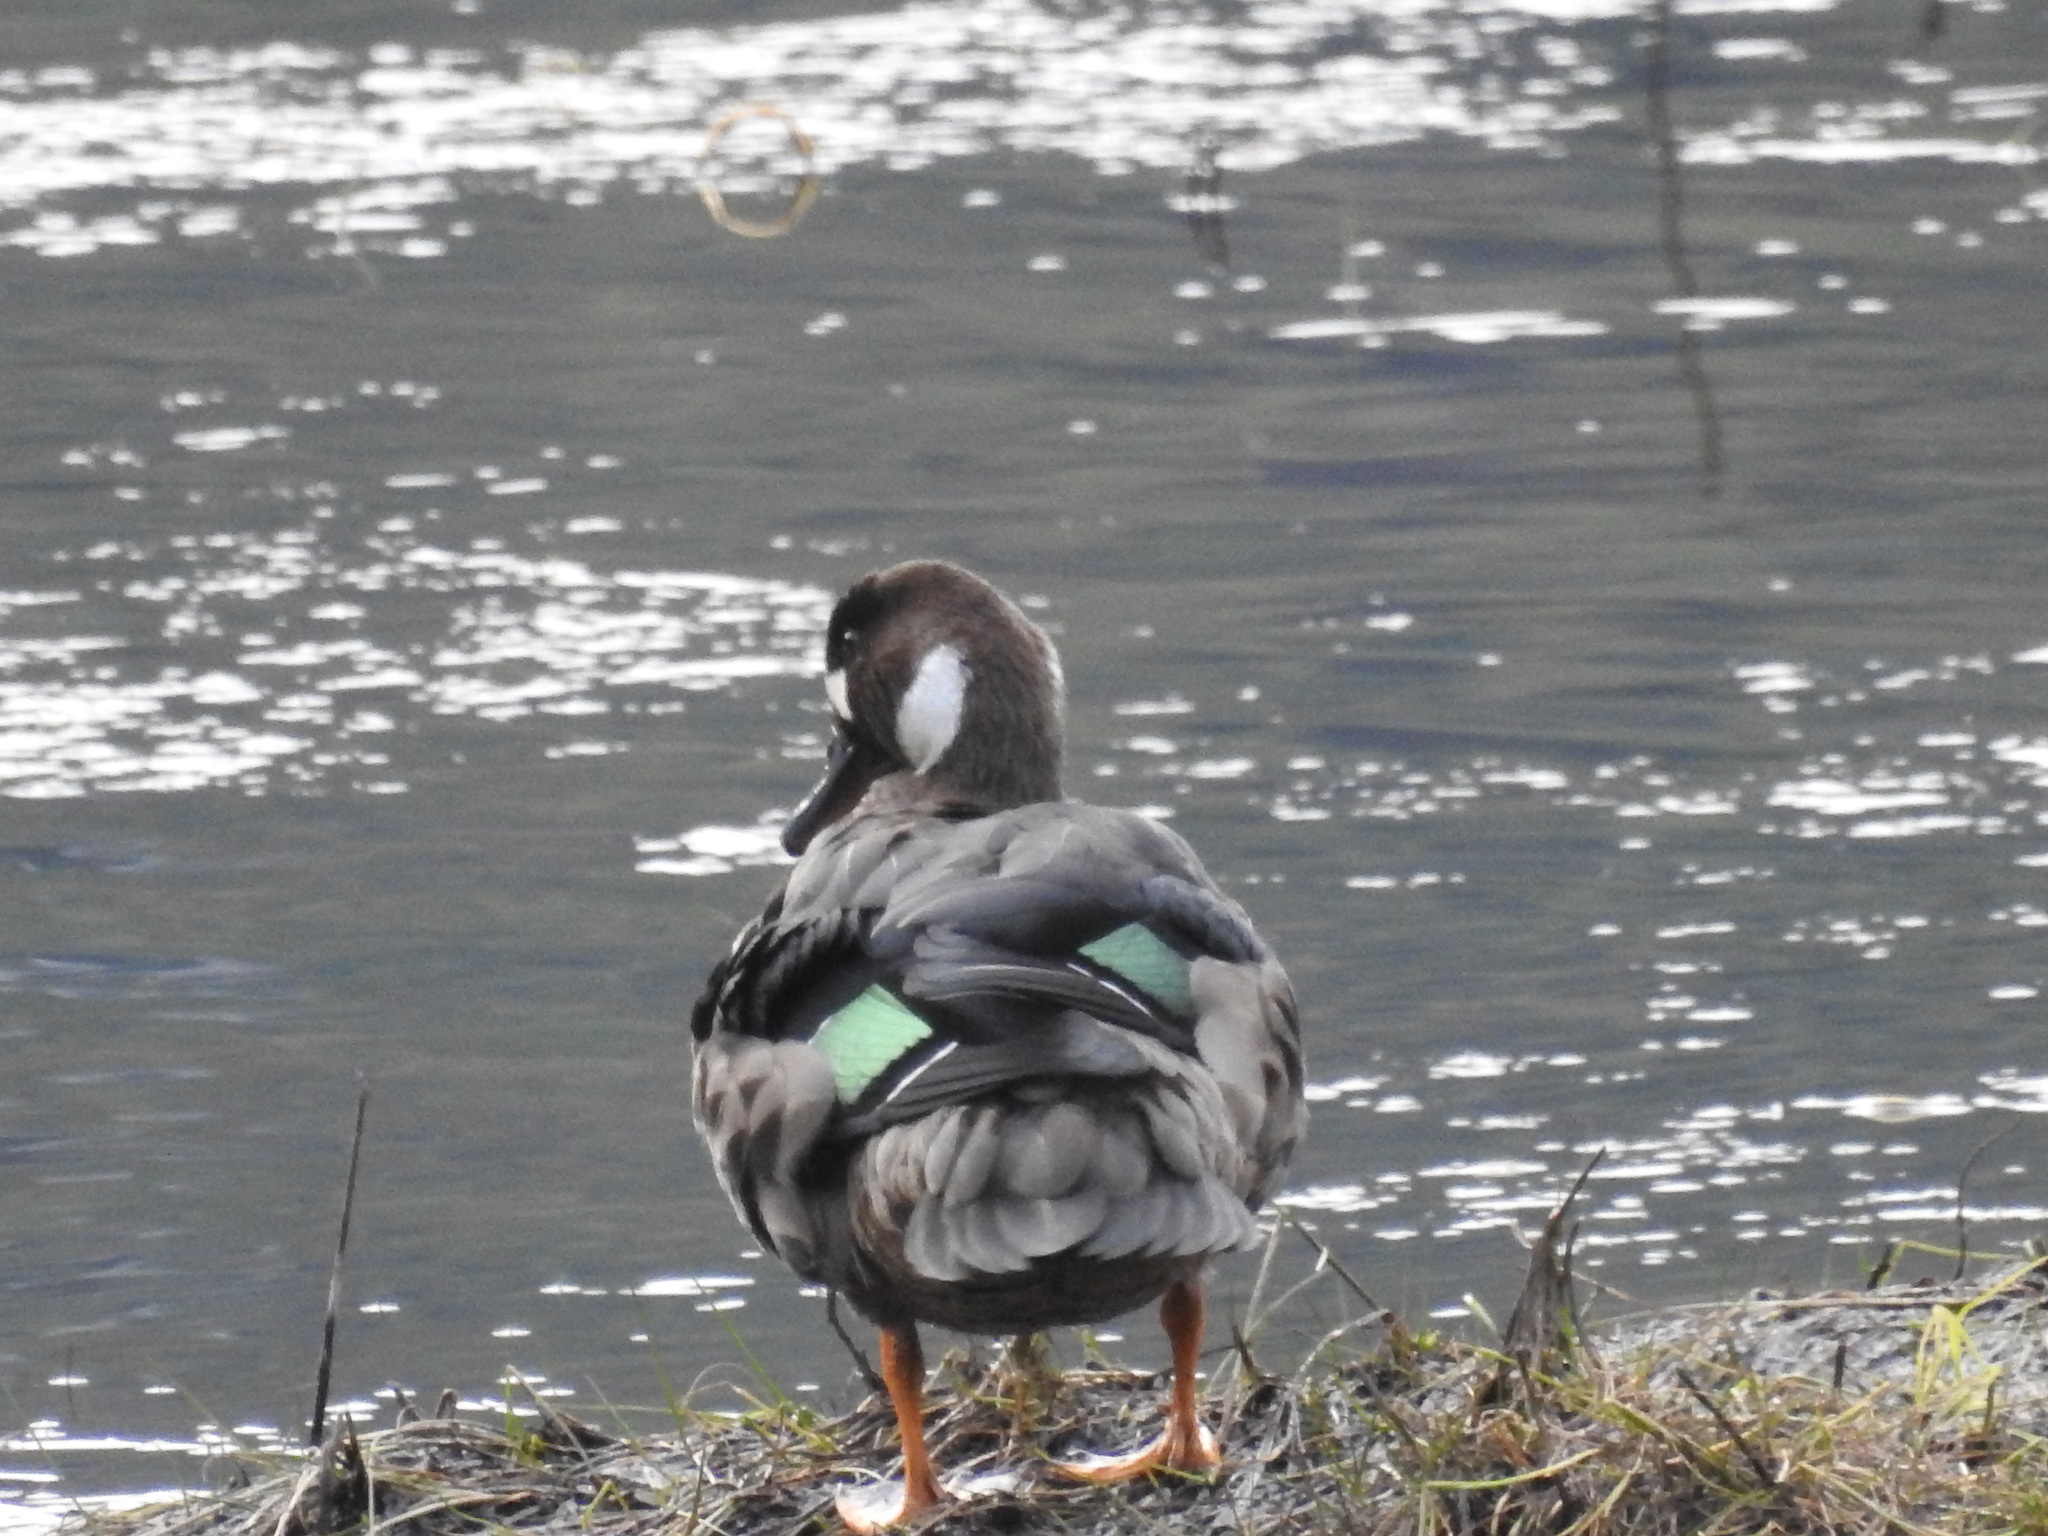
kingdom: Animalia
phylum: Chordata
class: Aves
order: Anseriformes
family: Anatidae
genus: Speculanas
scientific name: Speculanas specularis
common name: Bronze-winged duck
